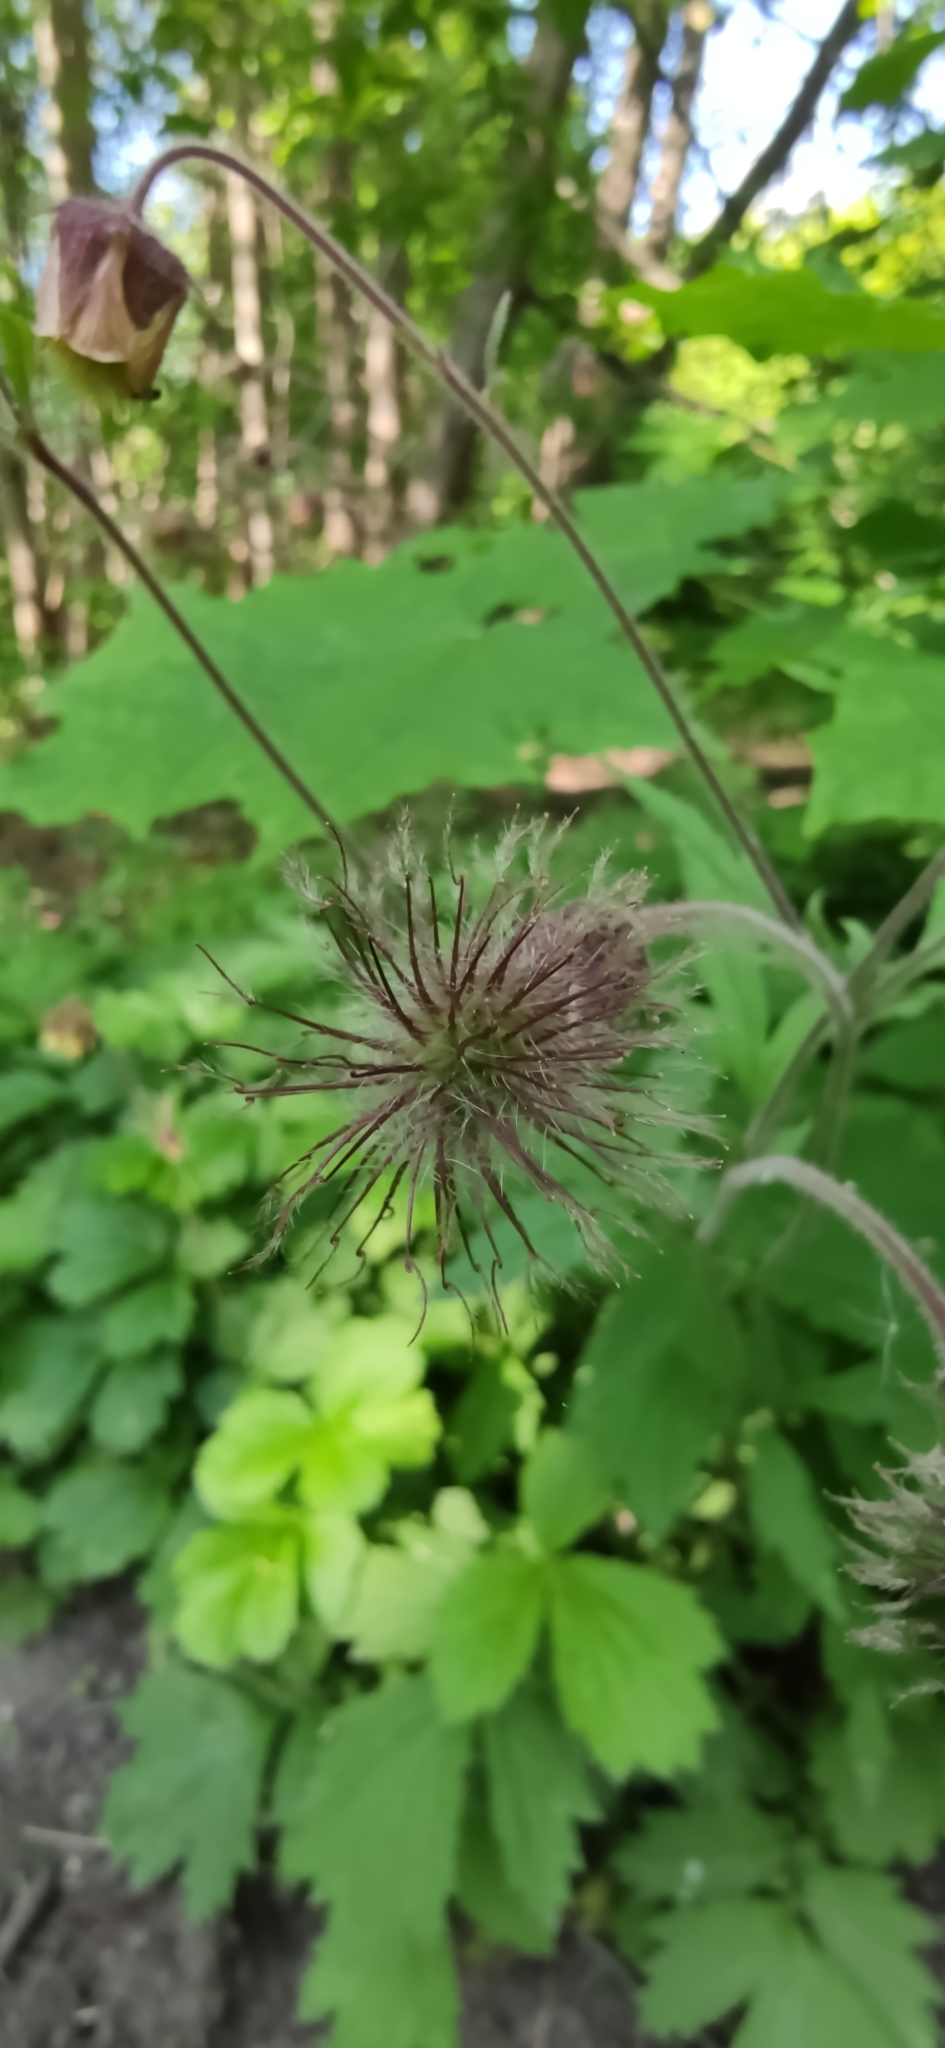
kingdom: Plantae
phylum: Tracheophyta
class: Magnoliopsida
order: Rosales
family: Rosaceae
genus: Geum
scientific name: Geum rivale
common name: Water avens
